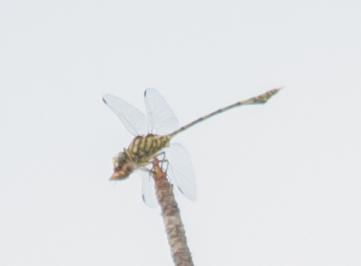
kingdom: Animalia
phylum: Arthropoda
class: Insecta
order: Odonata
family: Gomphidae
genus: Ictinogomphus
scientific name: Ictinogomphus dundoensis
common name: Swamp tigertail
